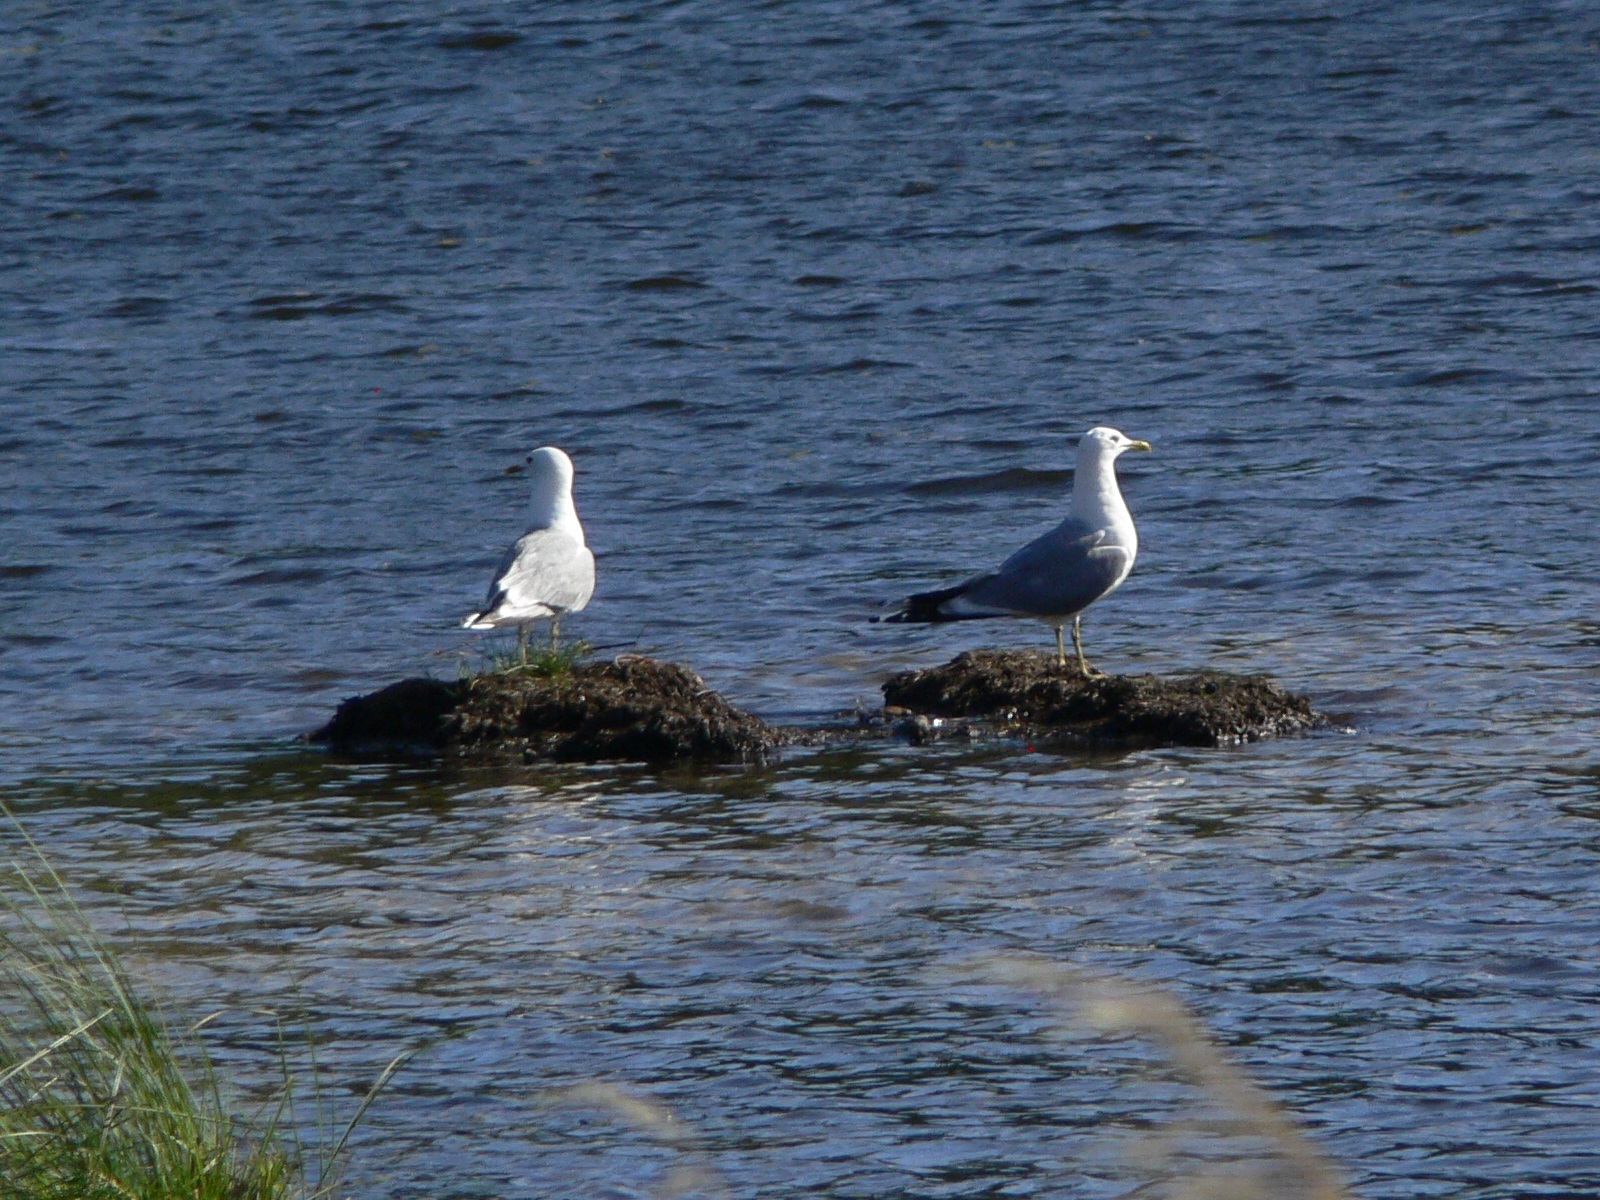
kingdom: Animalia
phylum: Chordata
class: Aves
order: Charadriiformes
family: Laridae
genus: Larus
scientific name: Larus canus
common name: Mew gull
